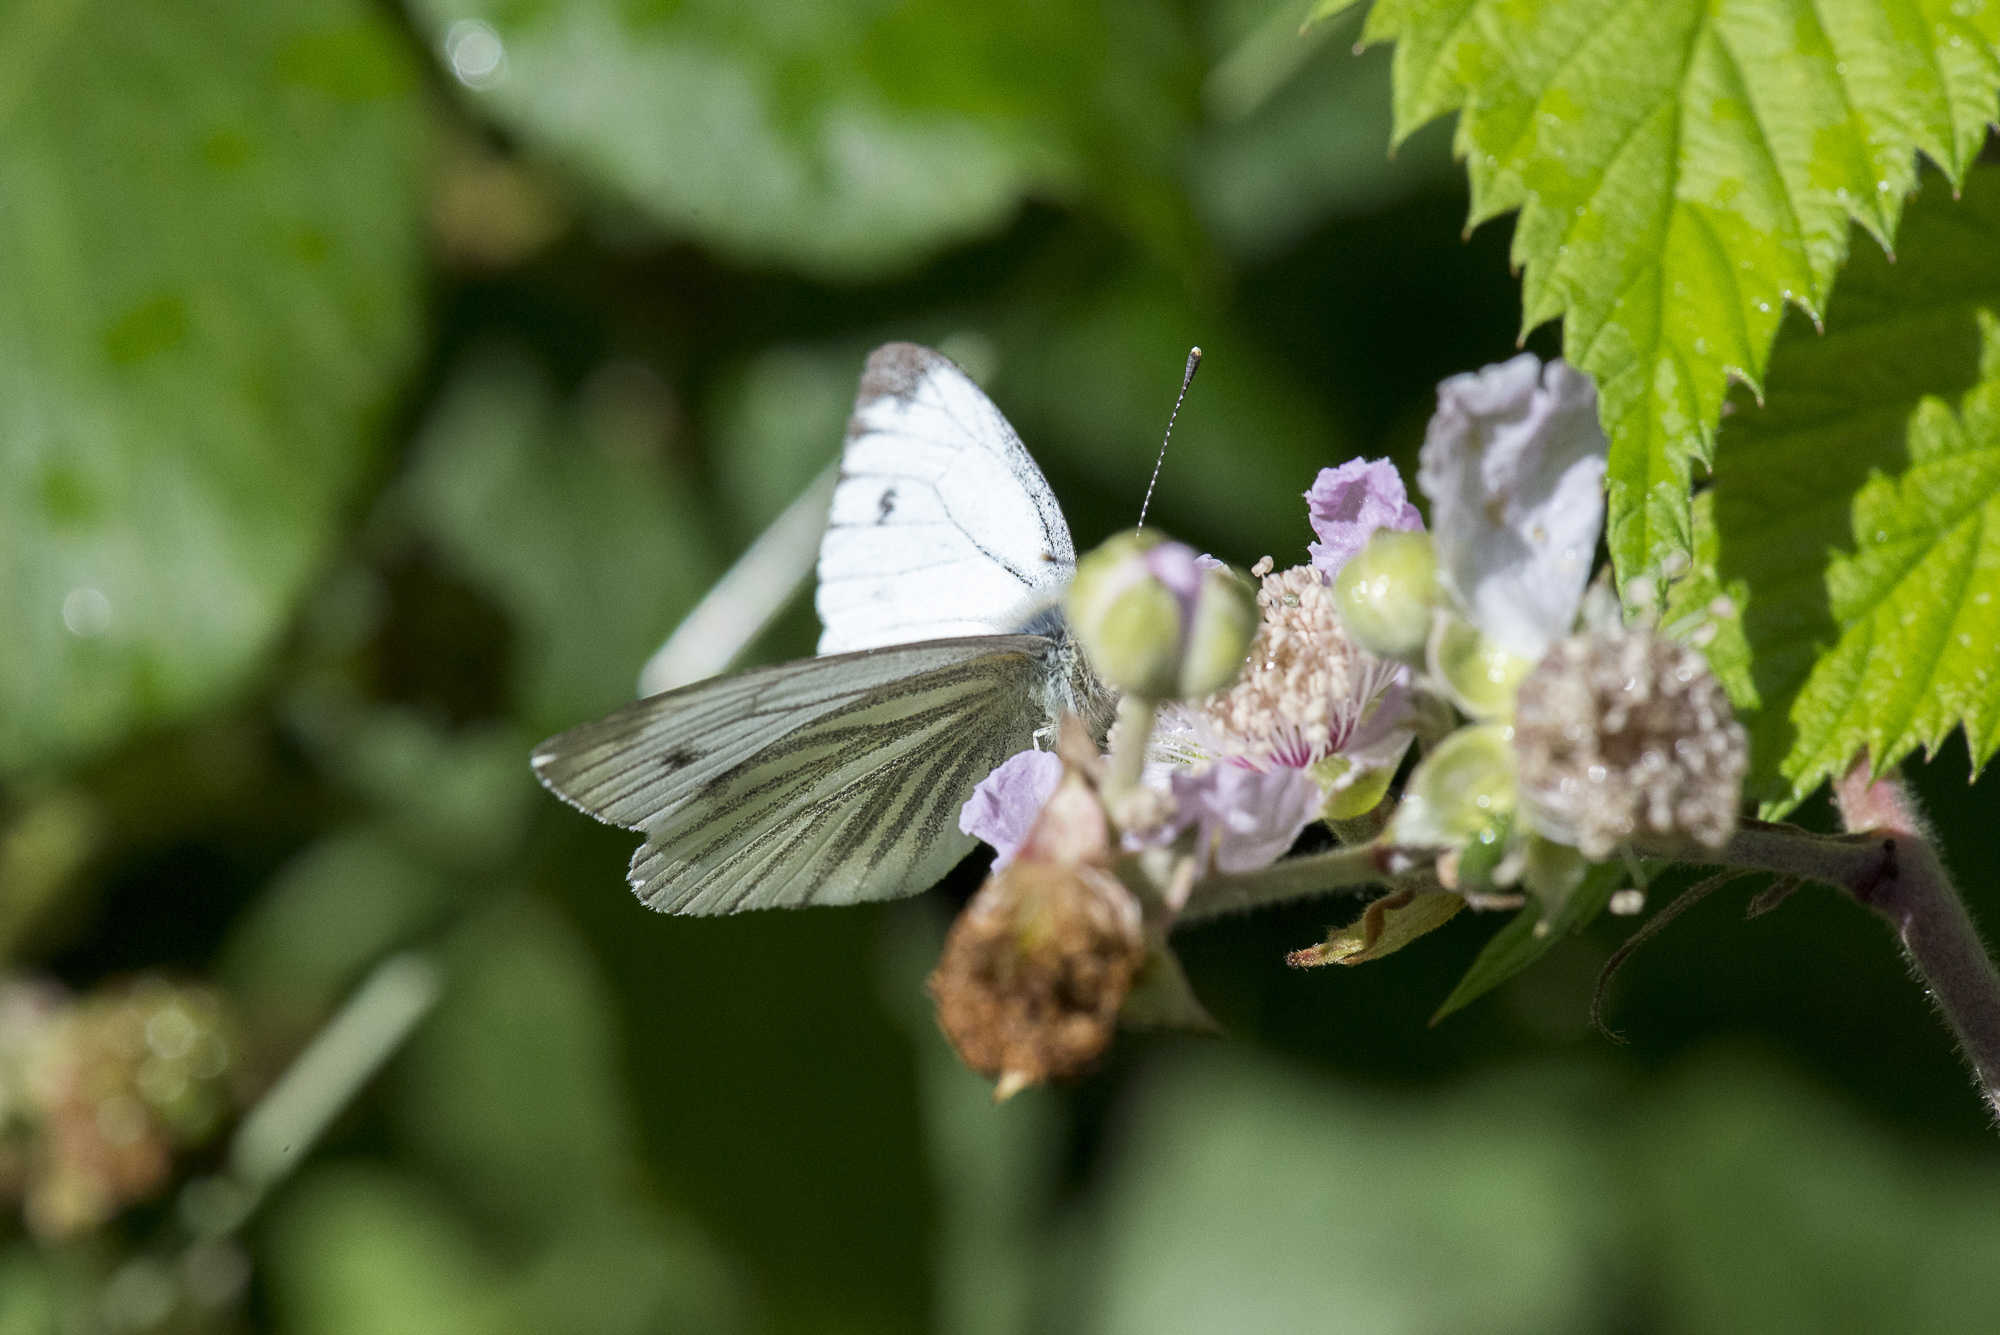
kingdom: Animalia
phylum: Arthropoda
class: Insecta
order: Lepidoptera
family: Pieridae
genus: Pieris
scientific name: Pieris napi
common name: Green-veined white
